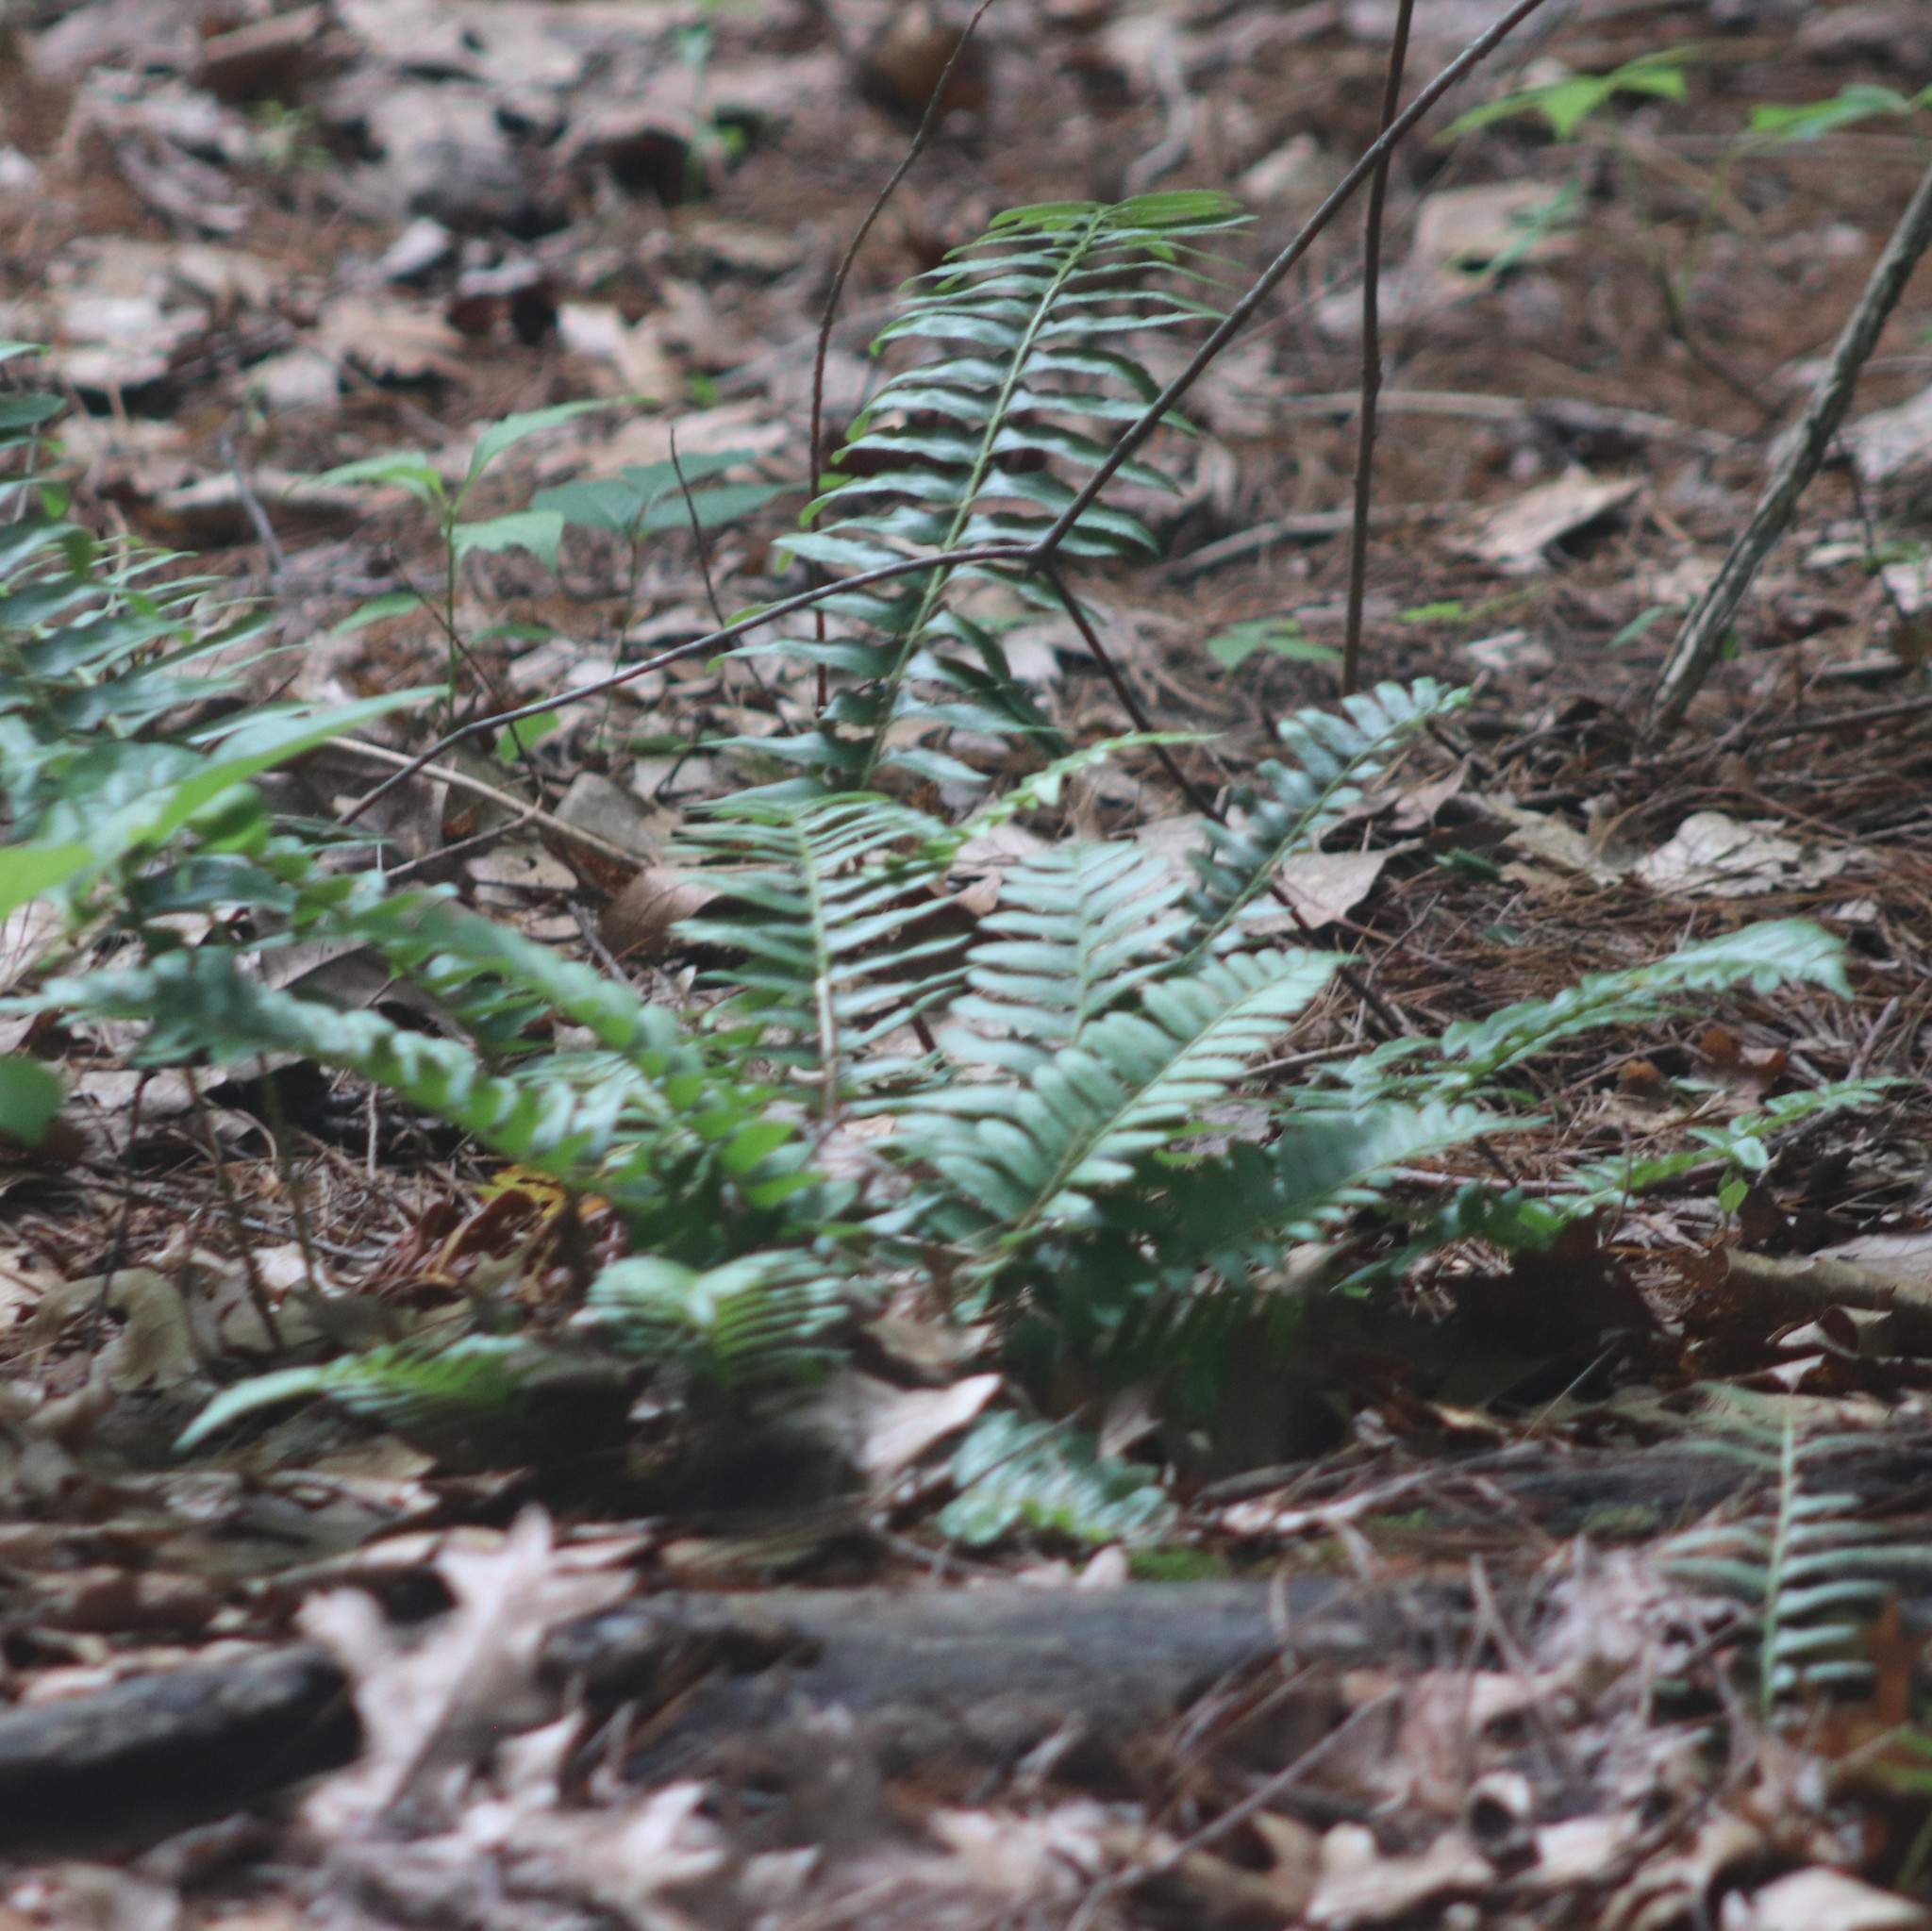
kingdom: Plantae
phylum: Tracheophyta
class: Polypodiopsida
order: Polypodiales
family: Dryopteridaceae
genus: Polystichum
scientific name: Polystichum acrostichoides
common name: Christmas fern
